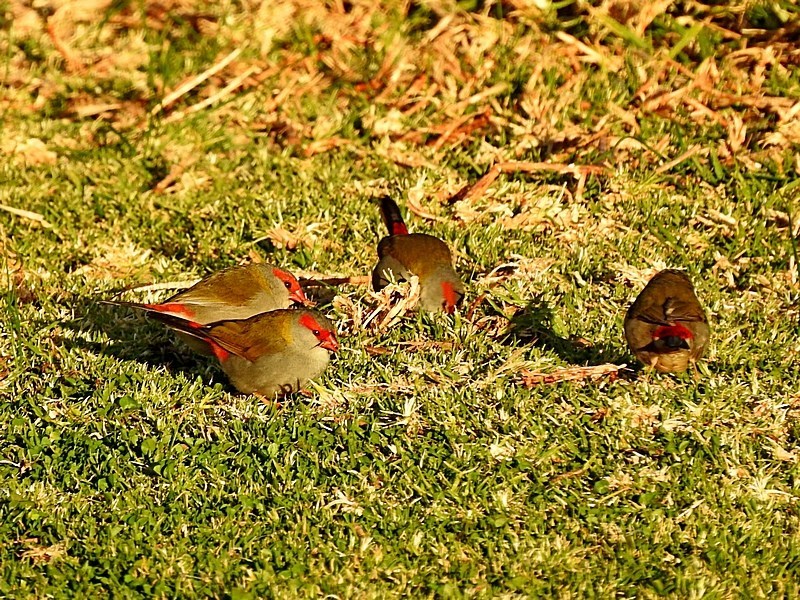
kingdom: Animalia
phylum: Chordata
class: Aves
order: Passeriformes
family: Estrildidae
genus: Neochmia
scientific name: Neochmia temporalis
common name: Red-browed finch
